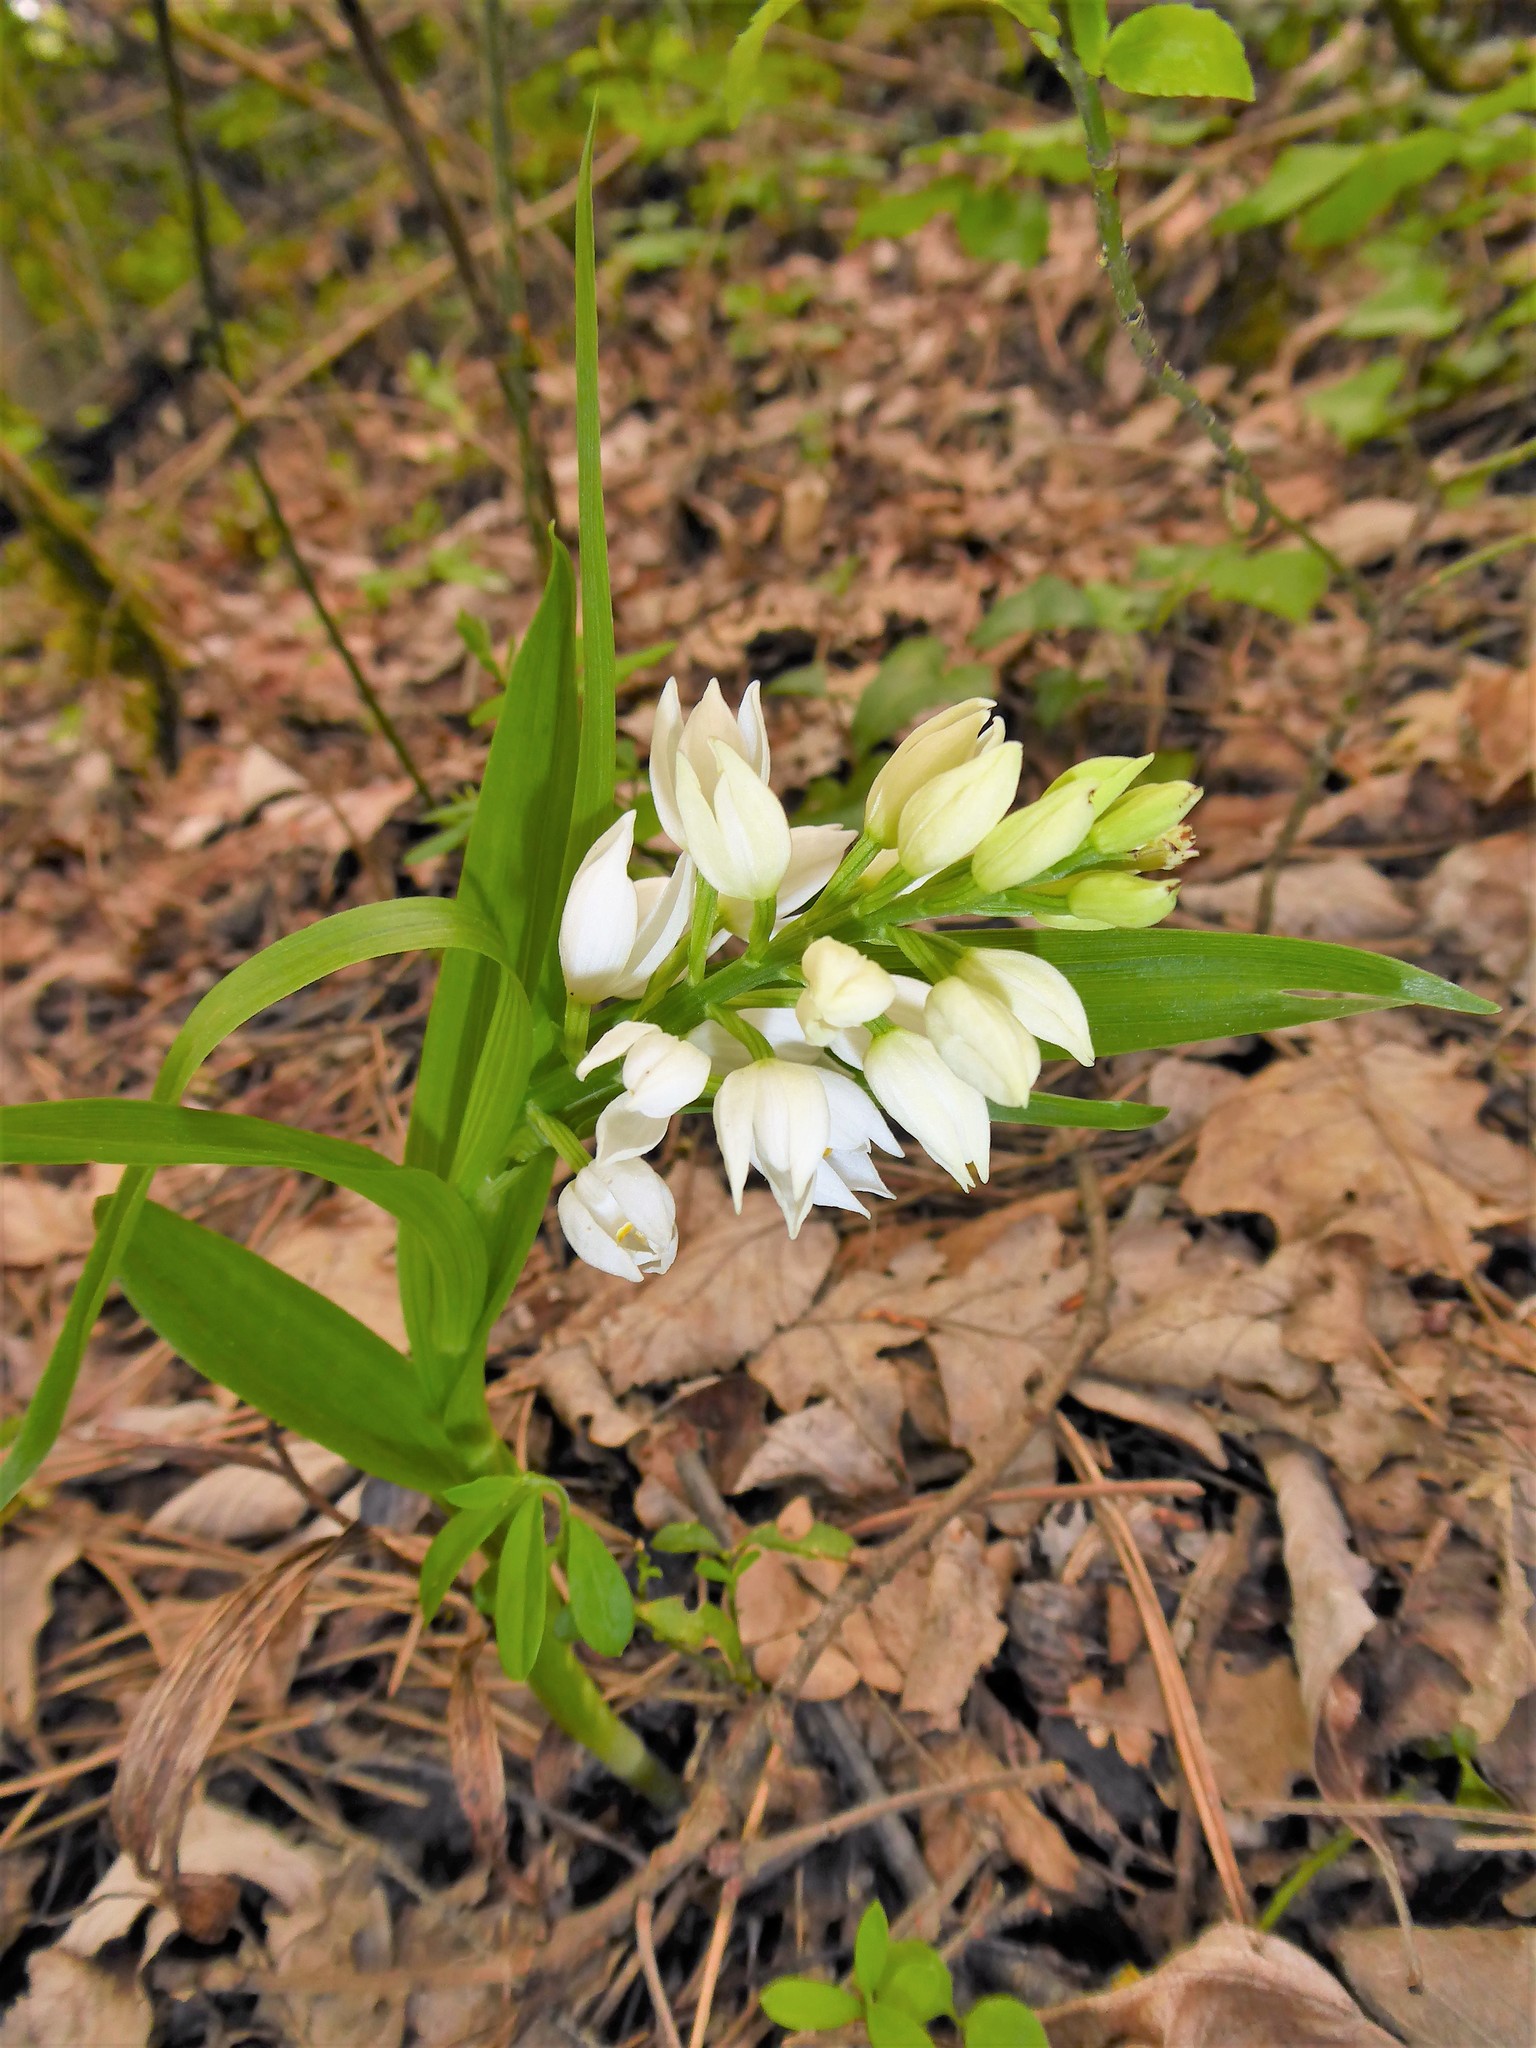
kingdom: Plantae
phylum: Tracheophyta
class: Liliopsida
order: Asparagales
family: Orchidaceae
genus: Cephalanthera
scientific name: Cephalanthera longifolia
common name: Narrow-leaved helleborine
